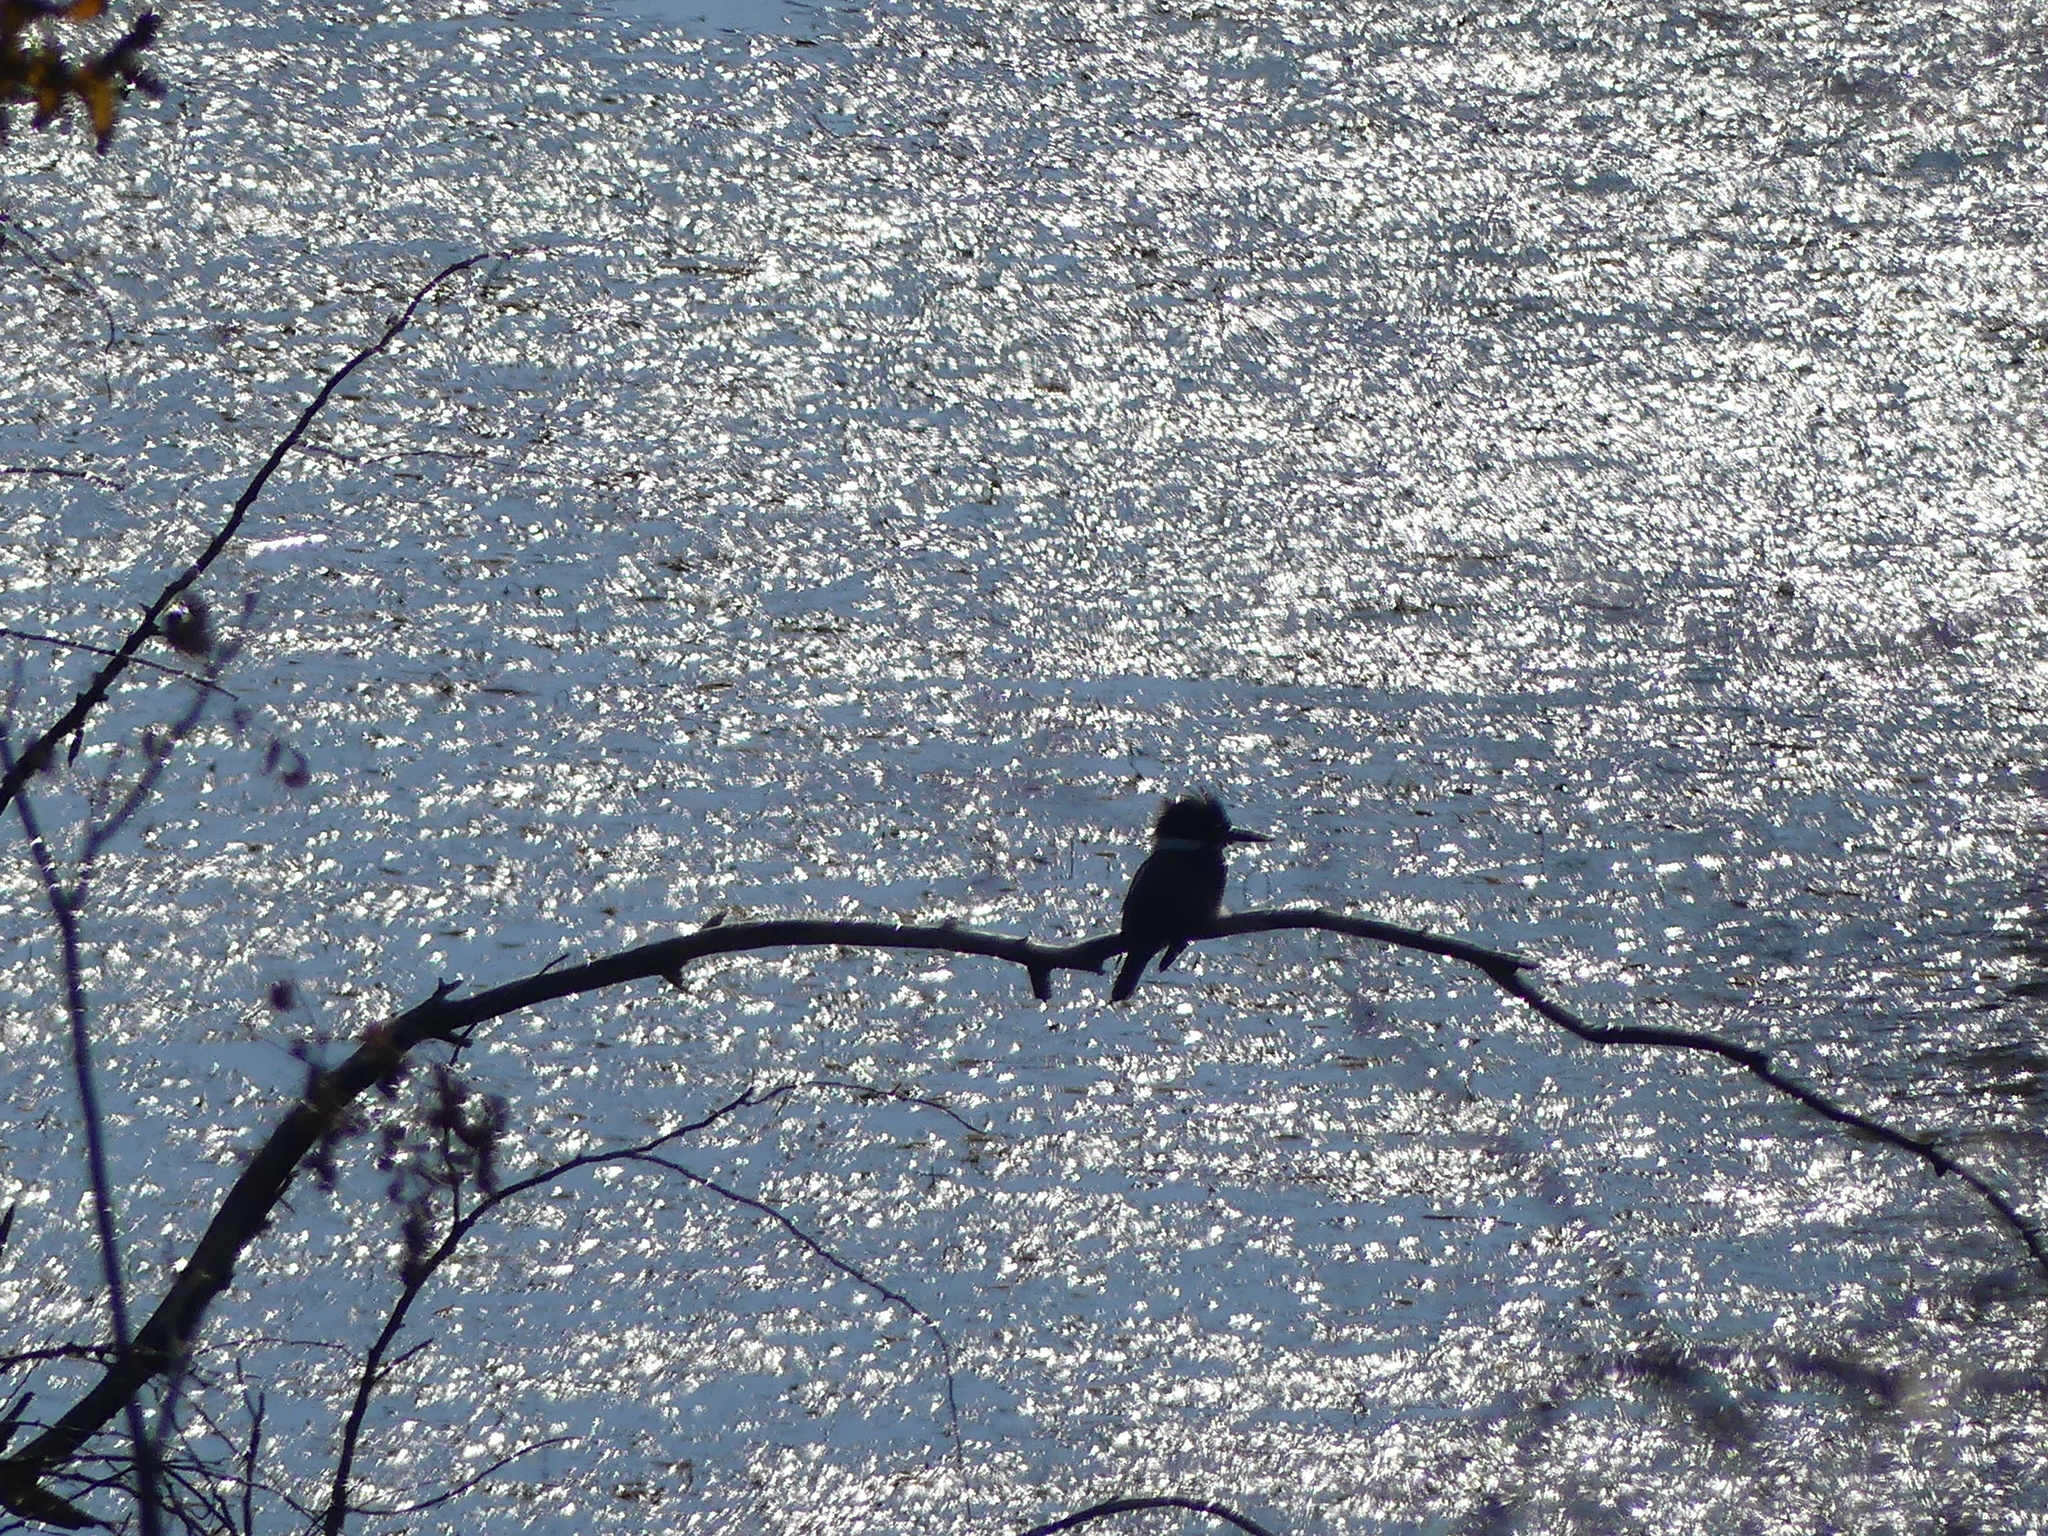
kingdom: Animalia
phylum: Chordata
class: Aves
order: Coraciiformes
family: Alcedinidae
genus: Megaceryle
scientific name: Megaceryle alcyon
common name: Belted kingfisher
